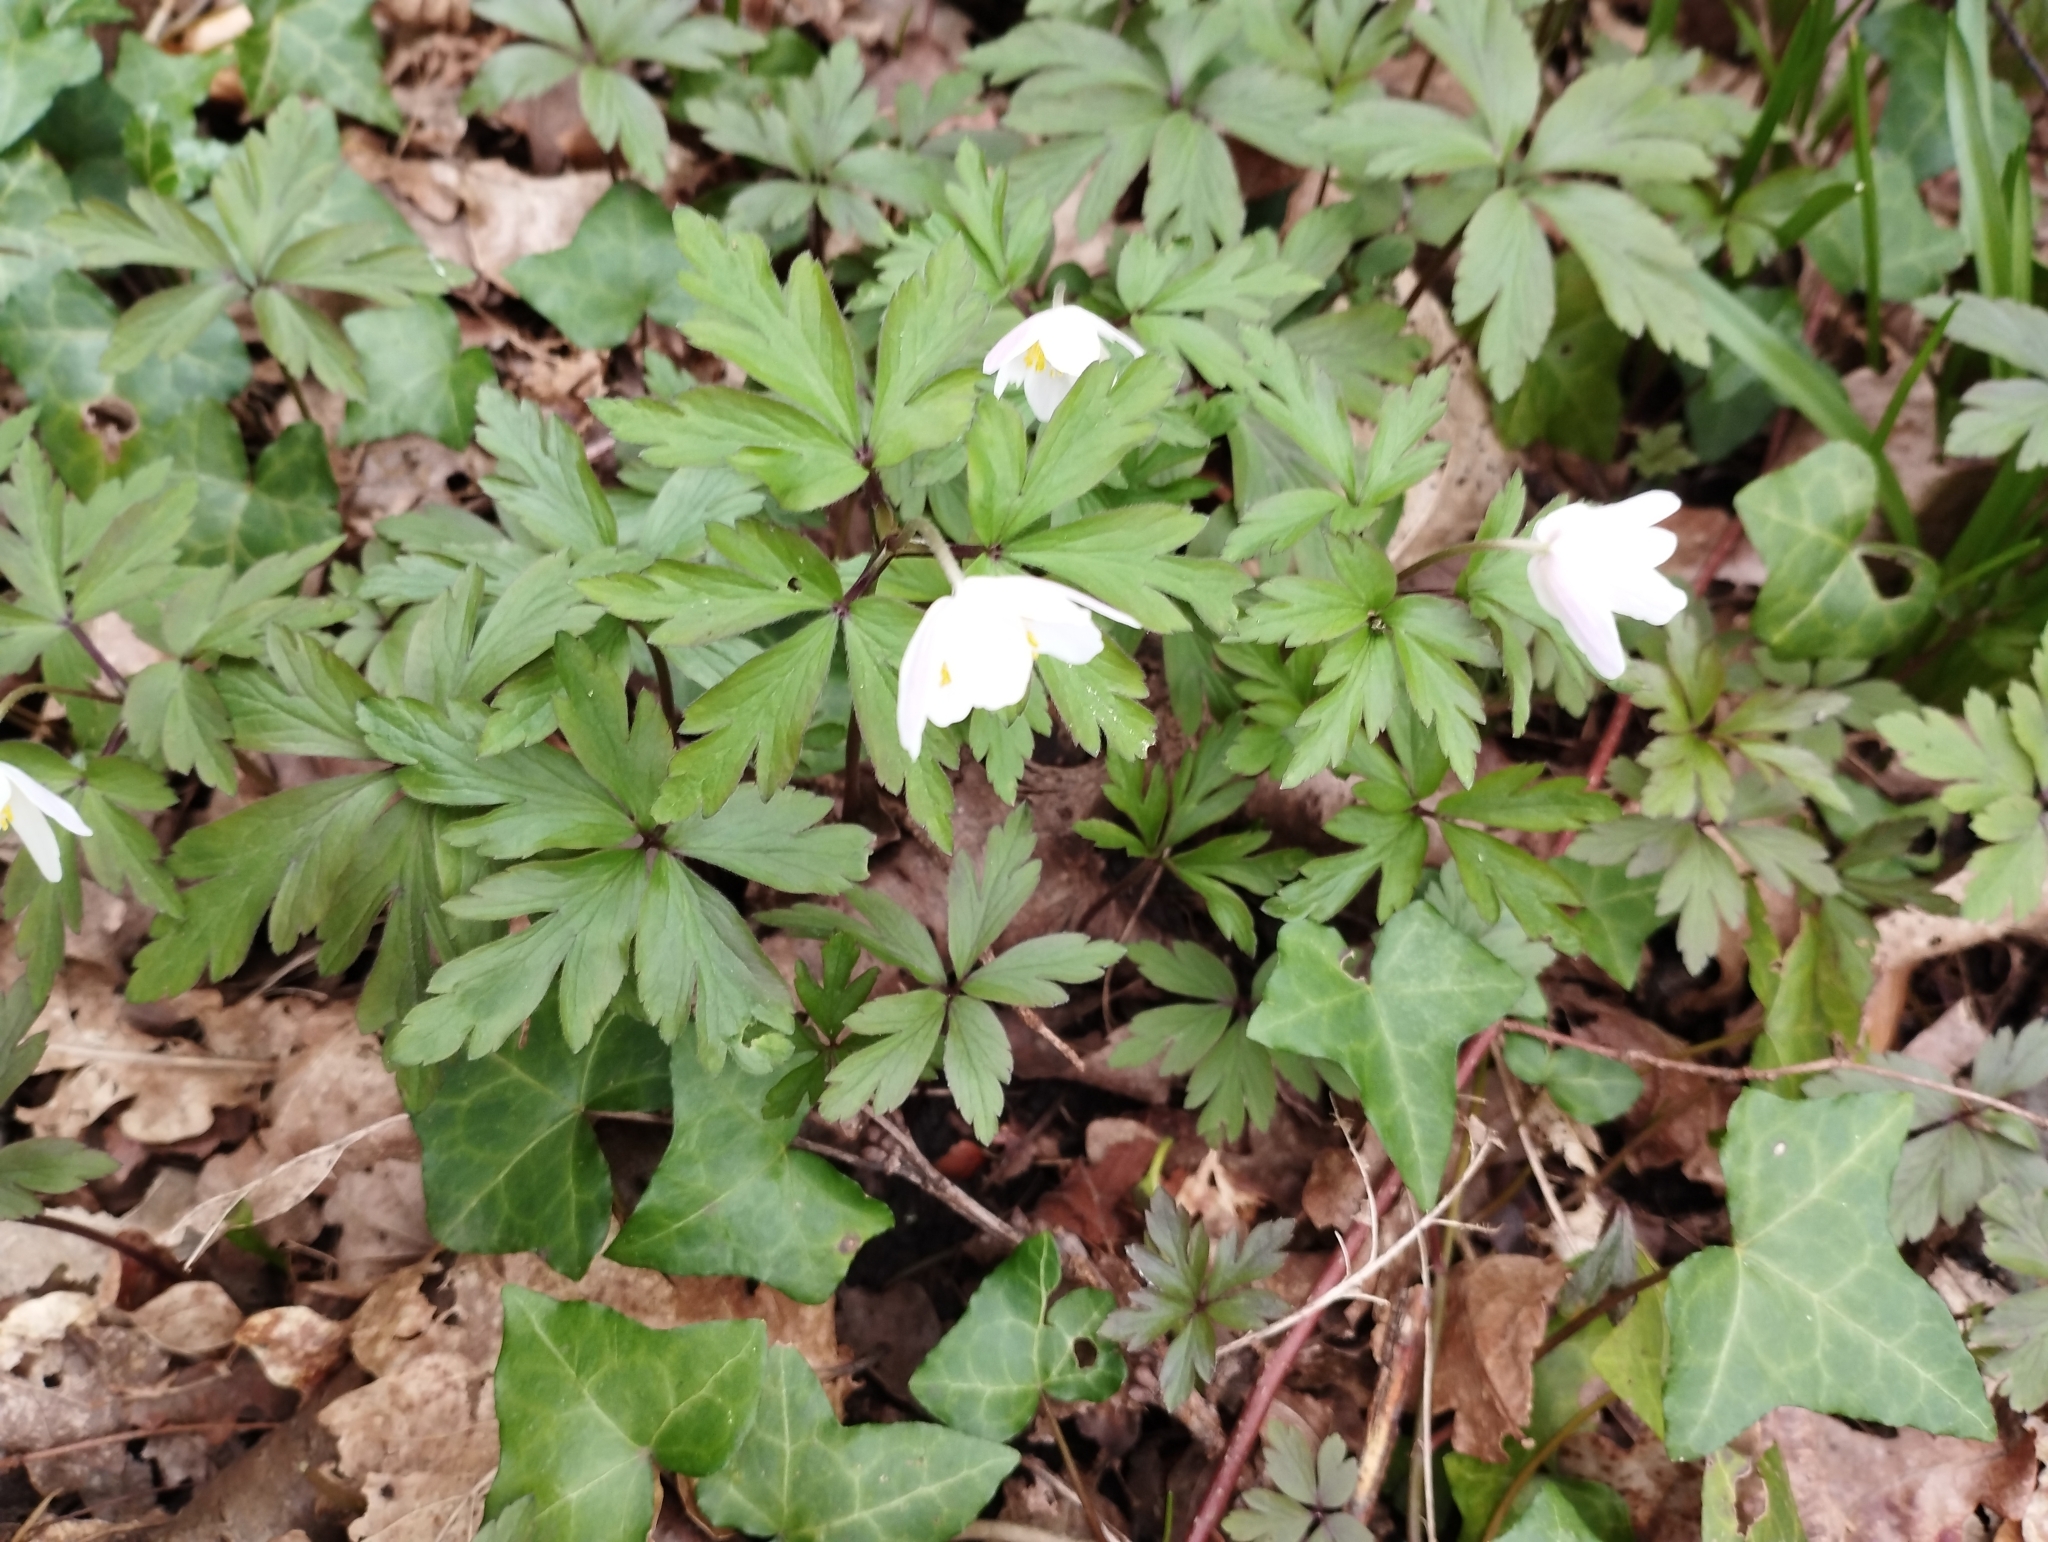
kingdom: Plantae
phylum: Tracheophyta
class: Magnoliopsida
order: Ranunculales
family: Ranunculaceae
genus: Anemone
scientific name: Anemone nemorosa
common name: Wood anemone
